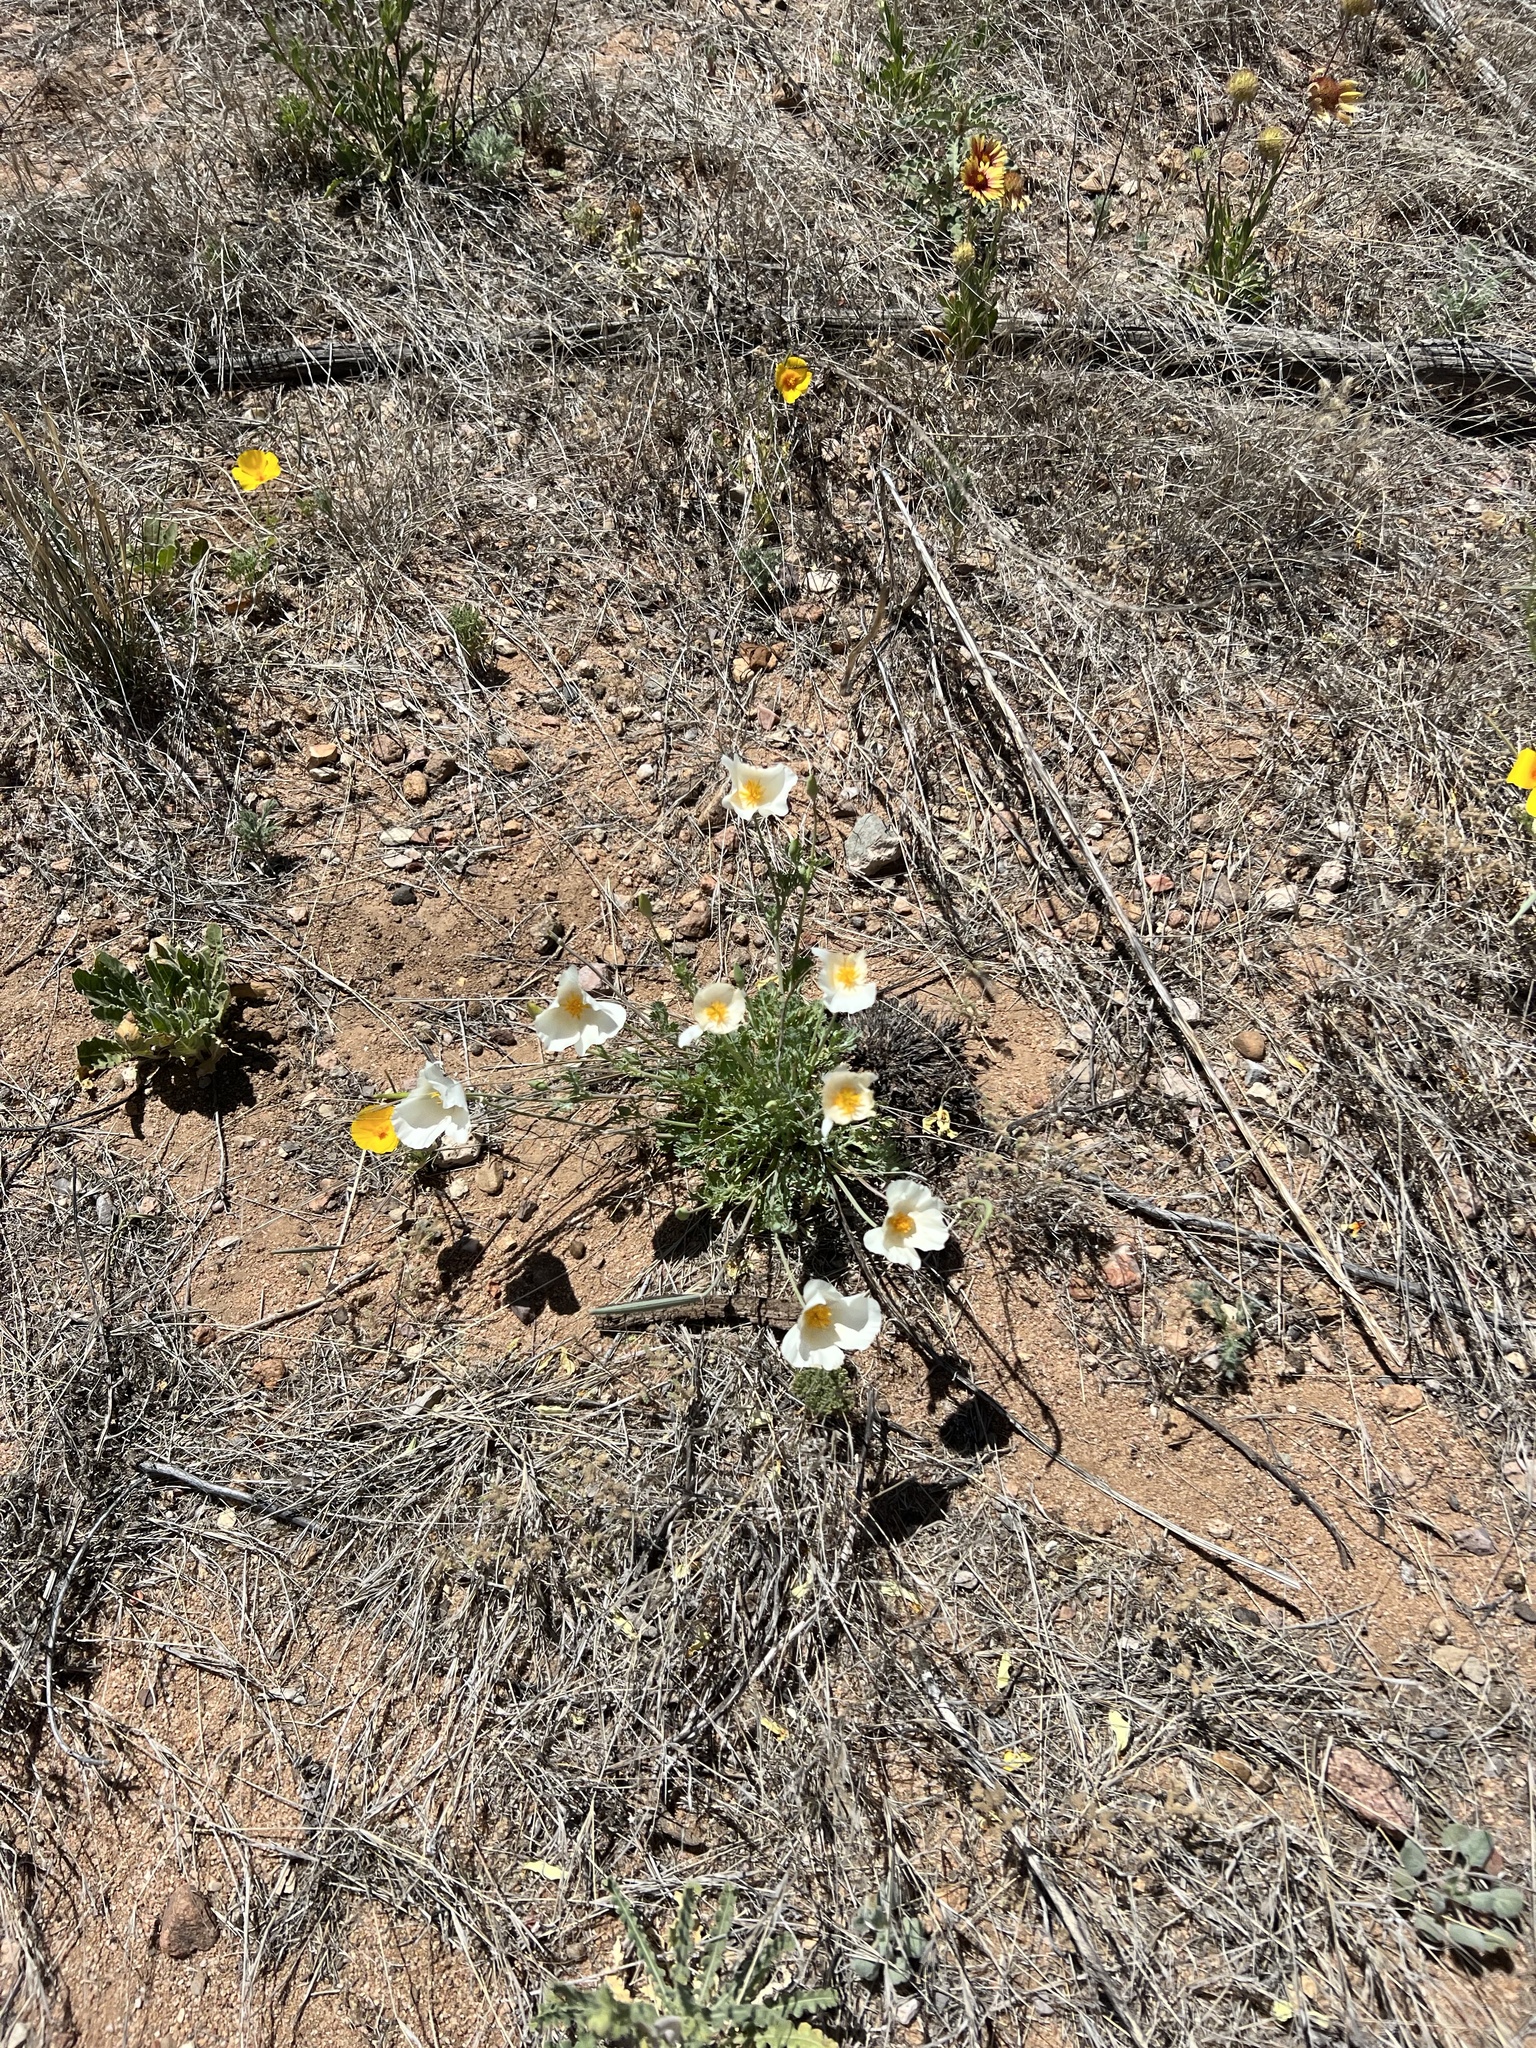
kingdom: Plantae
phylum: Tracheophyta
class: Magnoliopsida
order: Ranunculales
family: Papaveraceae
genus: Eschscholzia
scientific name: Eschscholzia californica
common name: California poppy
